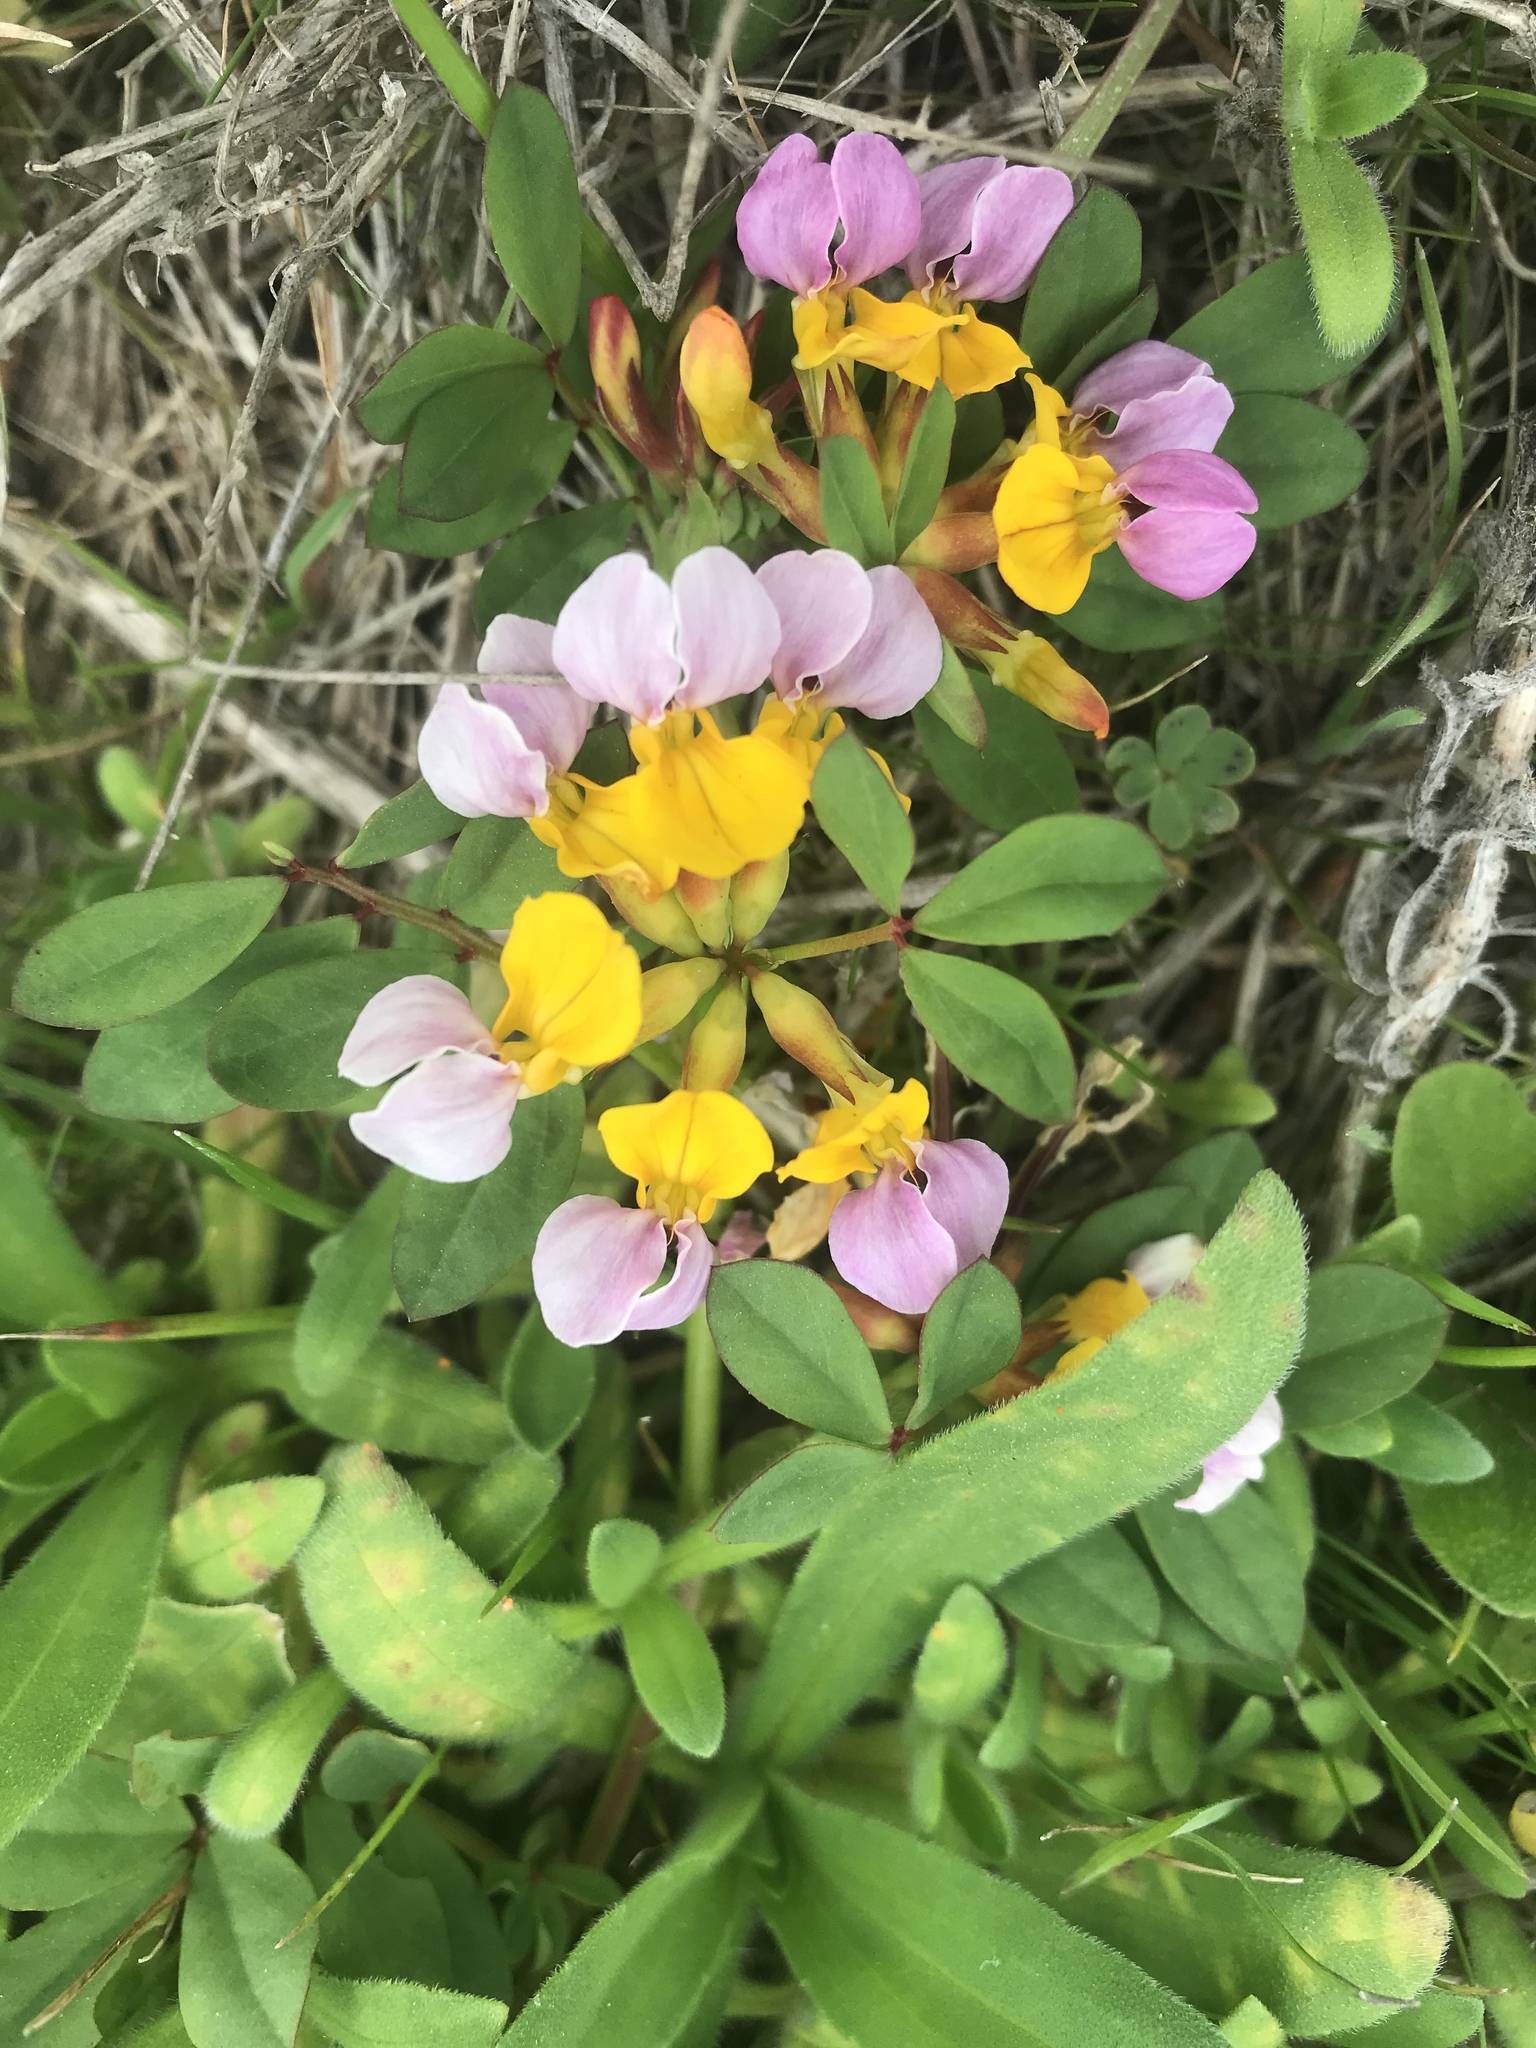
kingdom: Plantae
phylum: Tracheophyta
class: Magnoliopsida
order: Fabales
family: Fabaceae
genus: Hosackia
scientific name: Hosackia gracilis
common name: Seaside bird's-foot lotus
